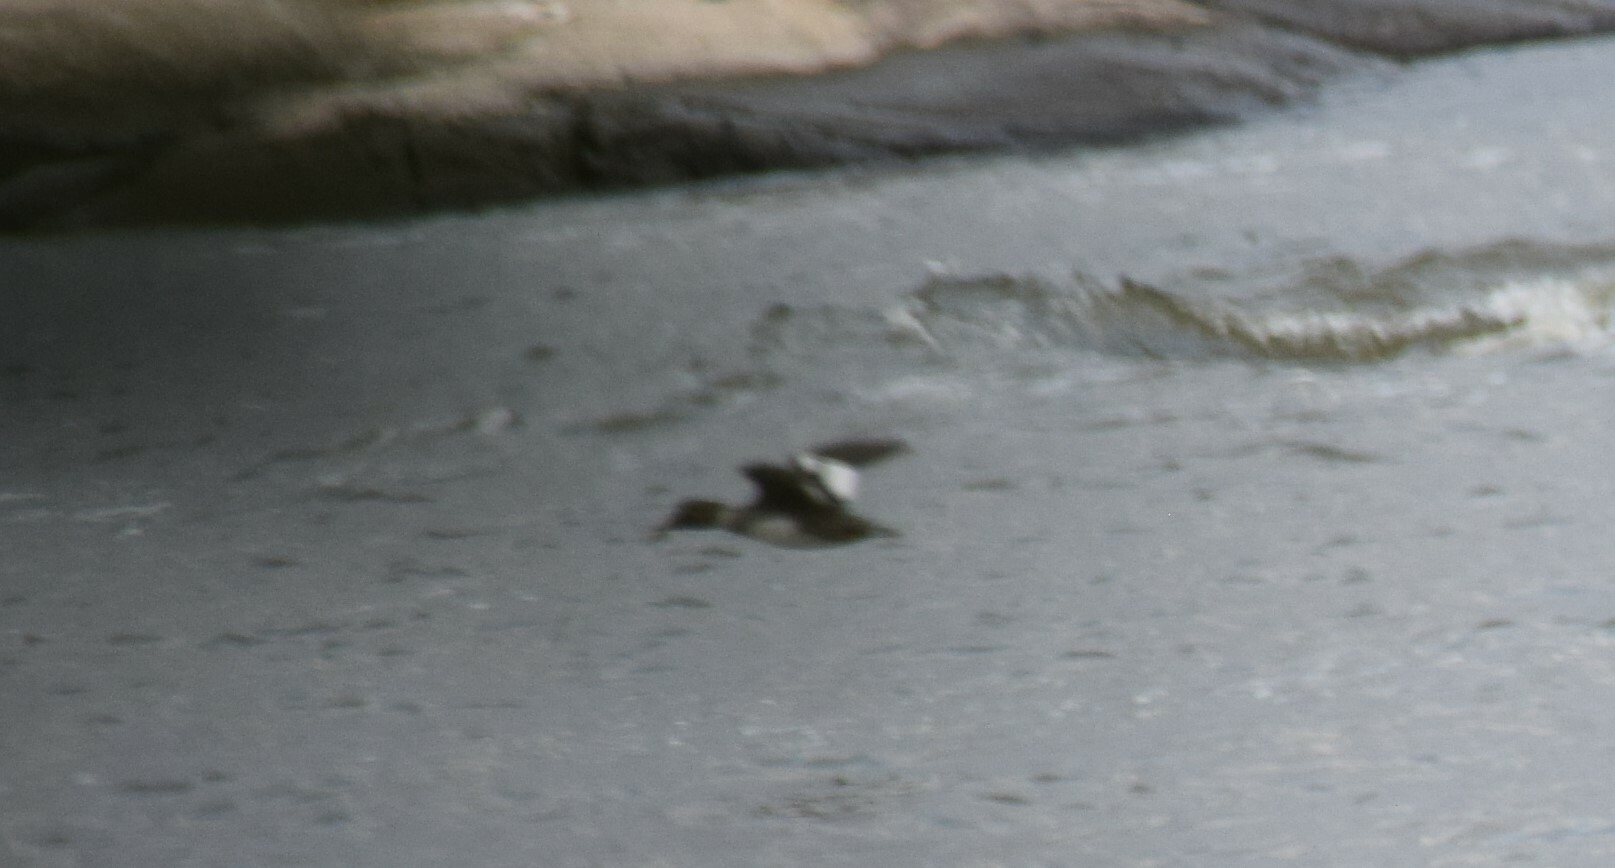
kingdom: Animalia
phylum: Chordata
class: Aves
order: Anseriformes
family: Anatidae
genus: Bucephala
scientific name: Bucephala clangula
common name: Common goldeneye
